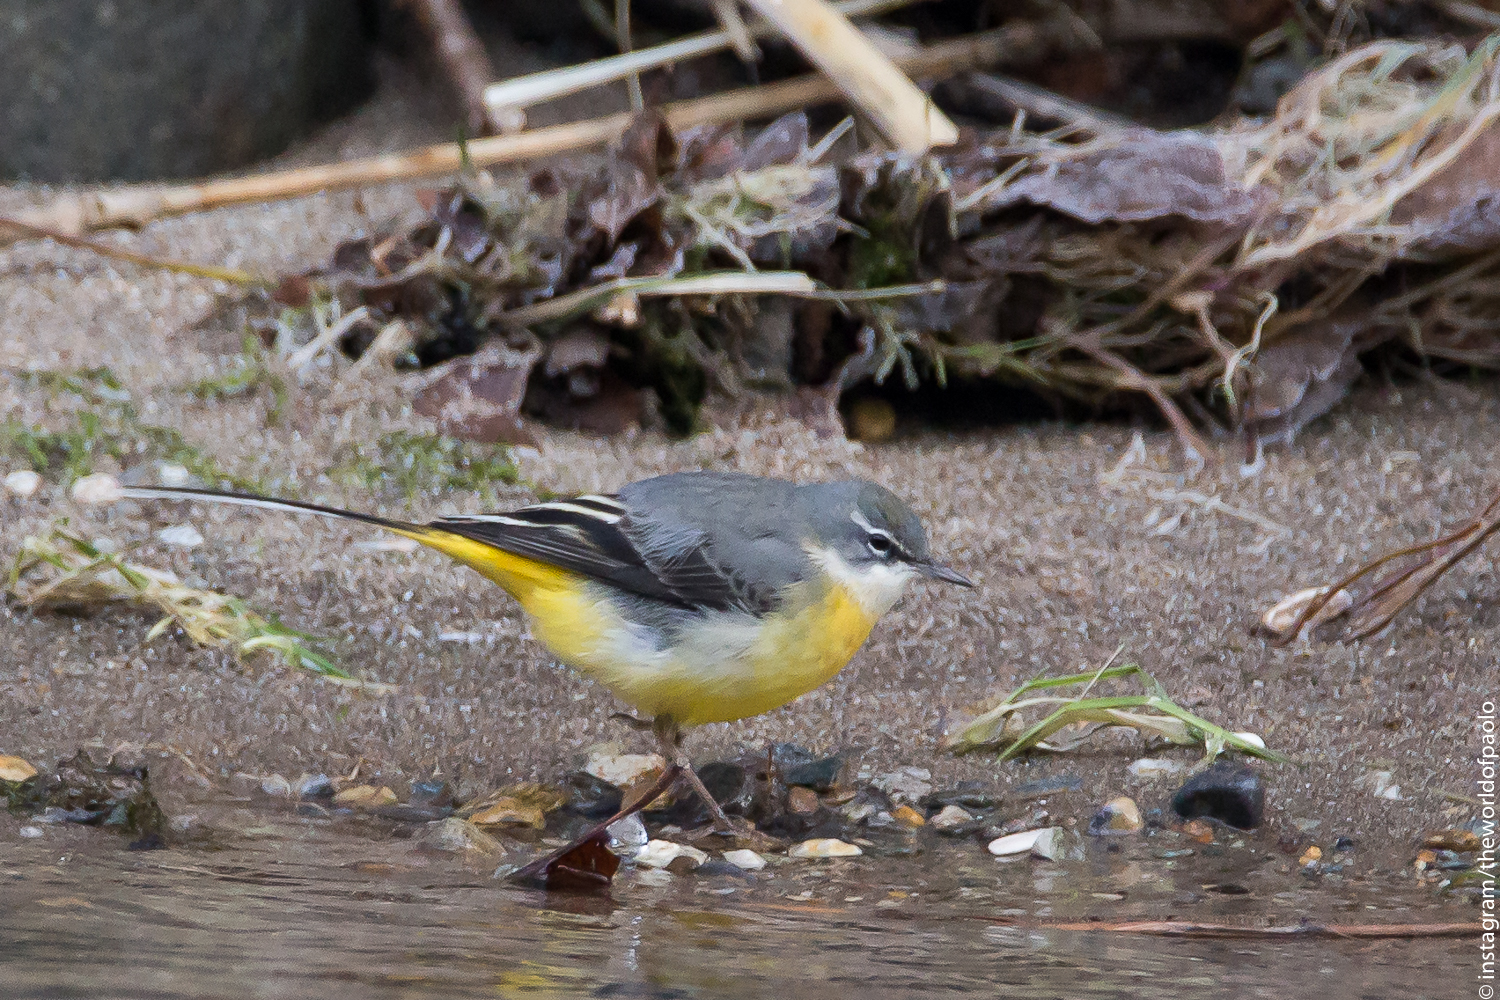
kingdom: Animalia
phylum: Chordata
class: Aves
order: Passeriformes
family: Motacillidae
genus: Motacilla
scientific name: Motacilla cinerea
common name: Grey wagtail
